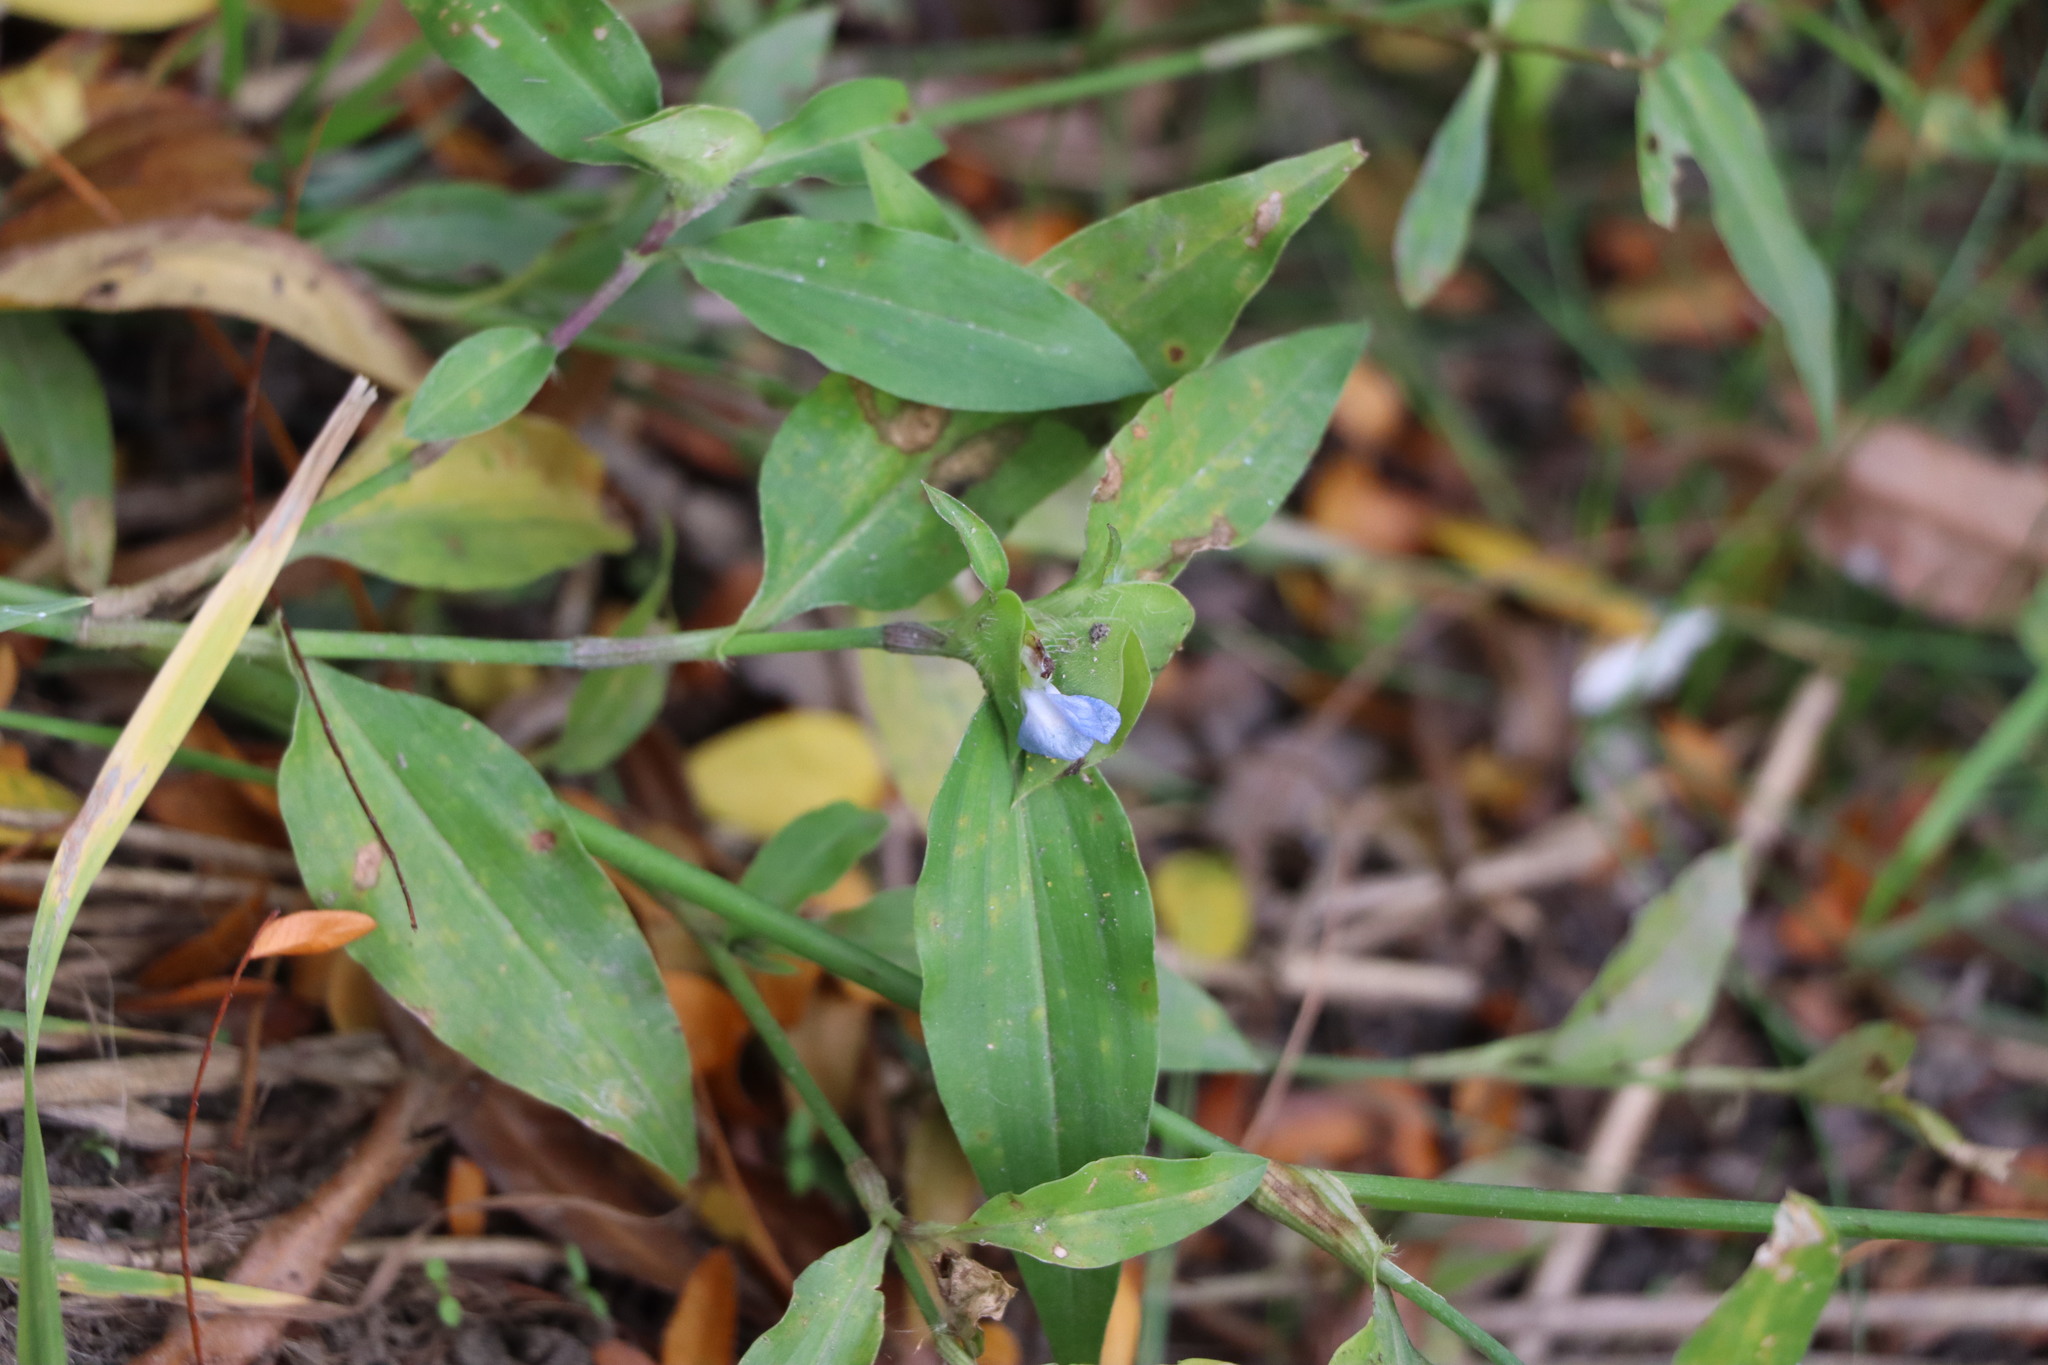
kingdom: Plantae
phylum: Tracheophyta
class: Liliopsida
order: Commelinales
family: Commelinaceae
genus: Commelina
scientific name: Commelina erecta
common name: Blousel blommetjie
